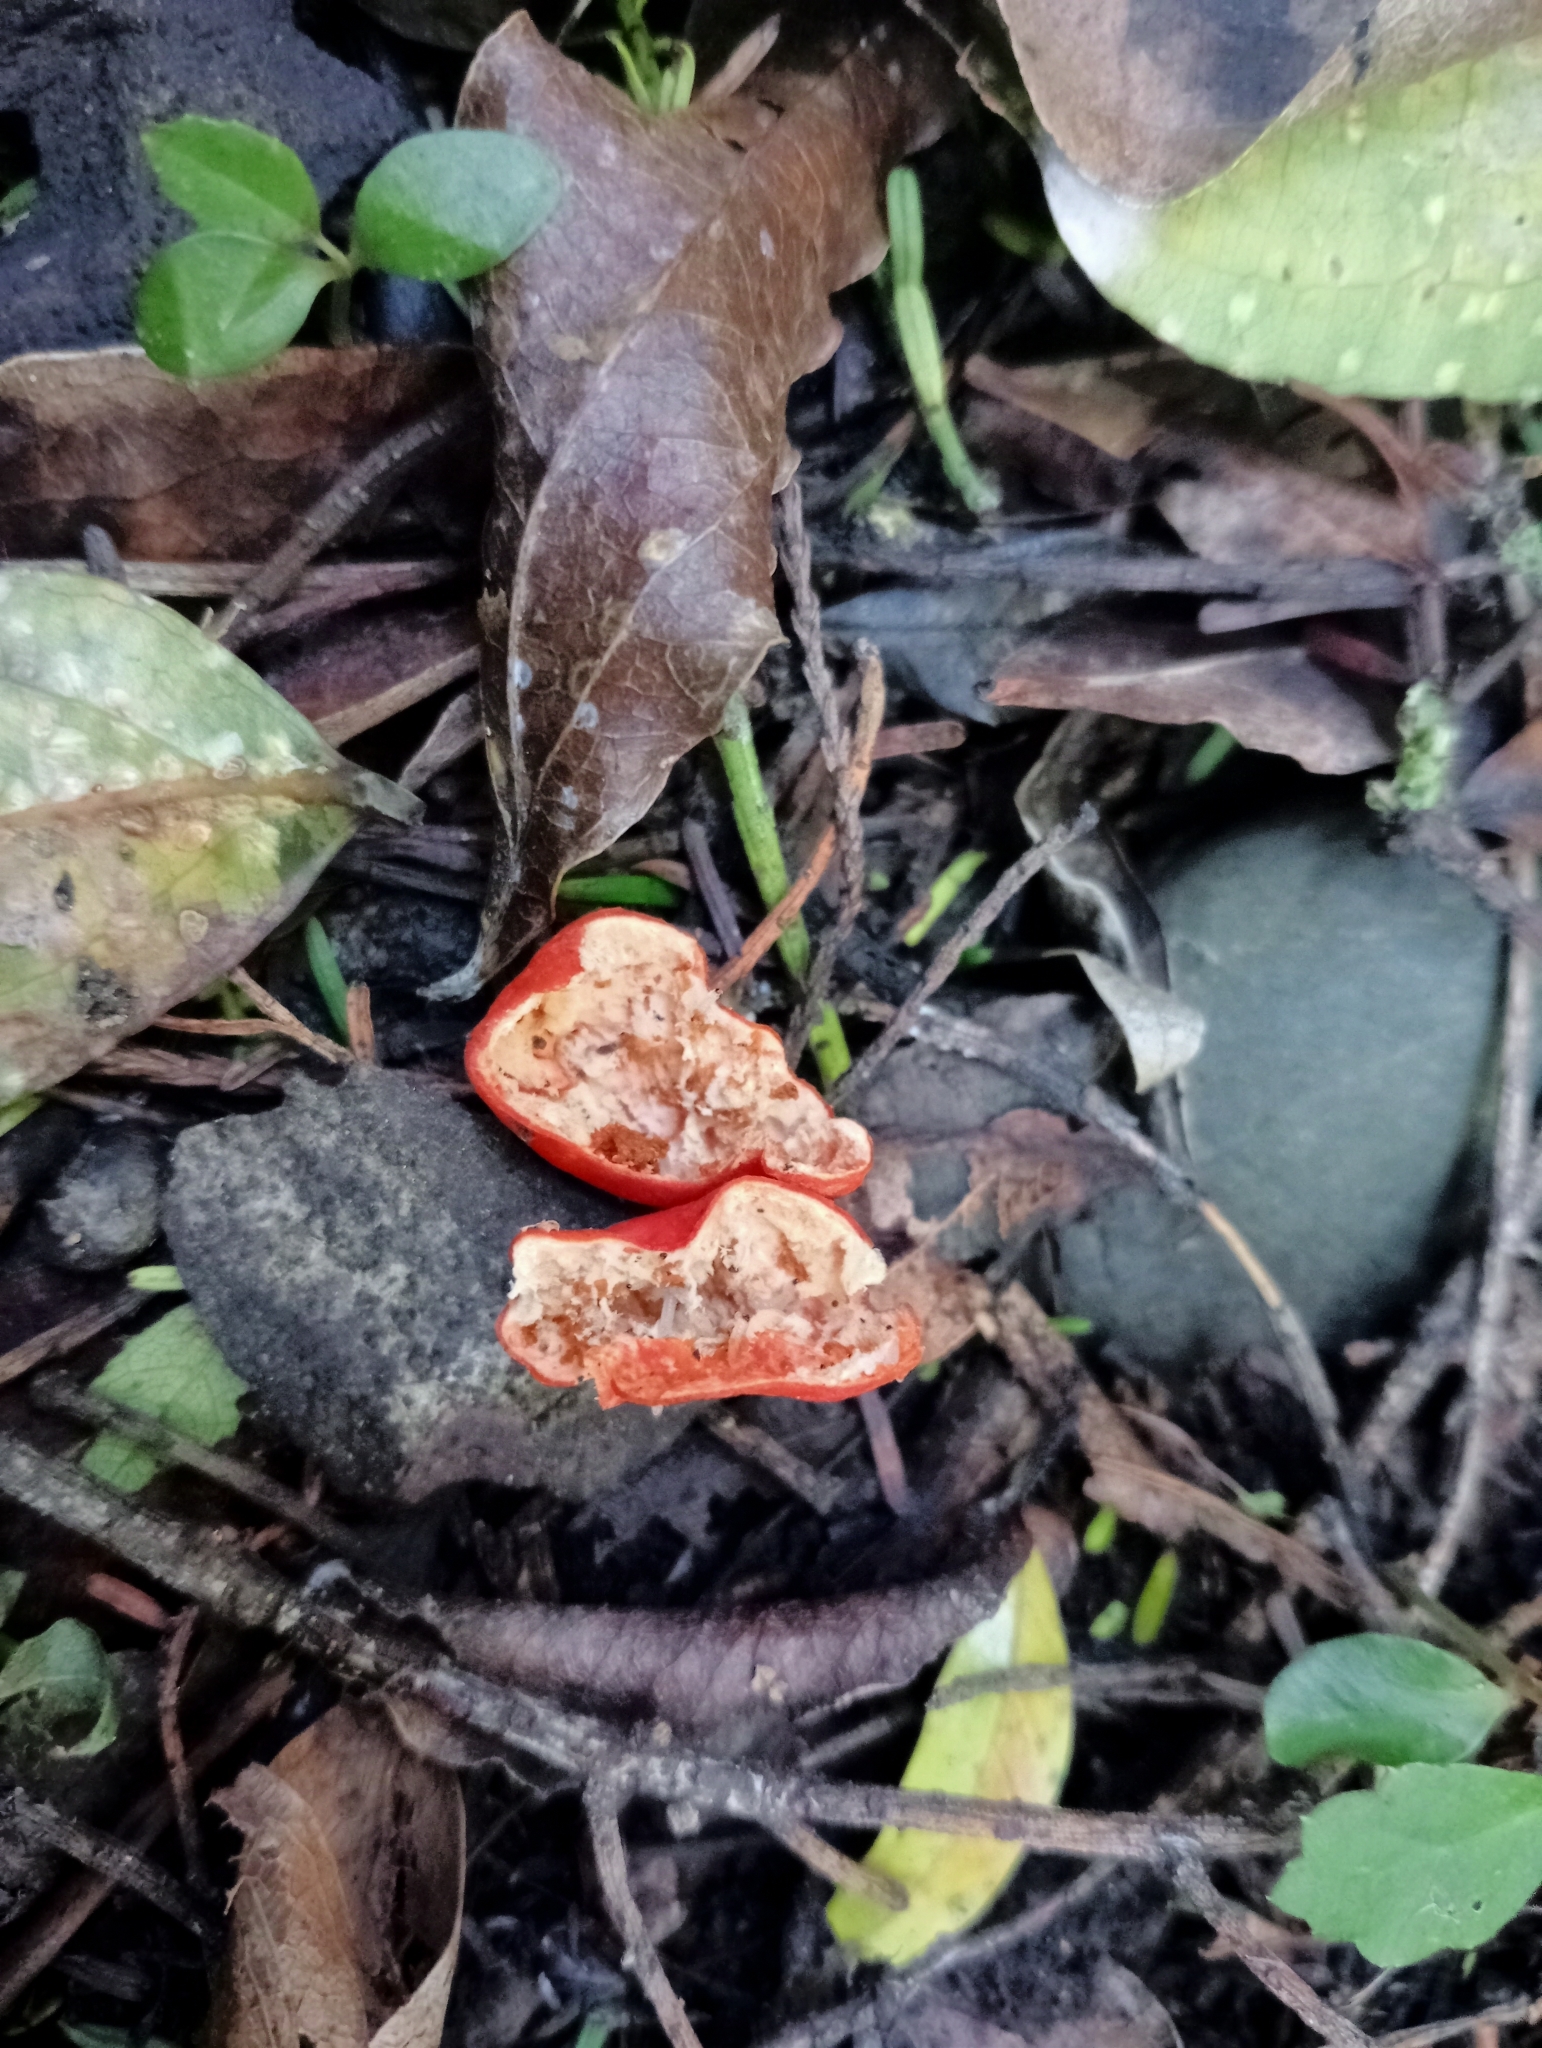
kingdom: Fungi
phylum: Ascomycota
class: Pezizomycetes
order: Pezizales
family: Pyronemataceae
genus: Paurocotylis
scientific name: Paurocotylis pila
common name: Scarlet berry truffle
